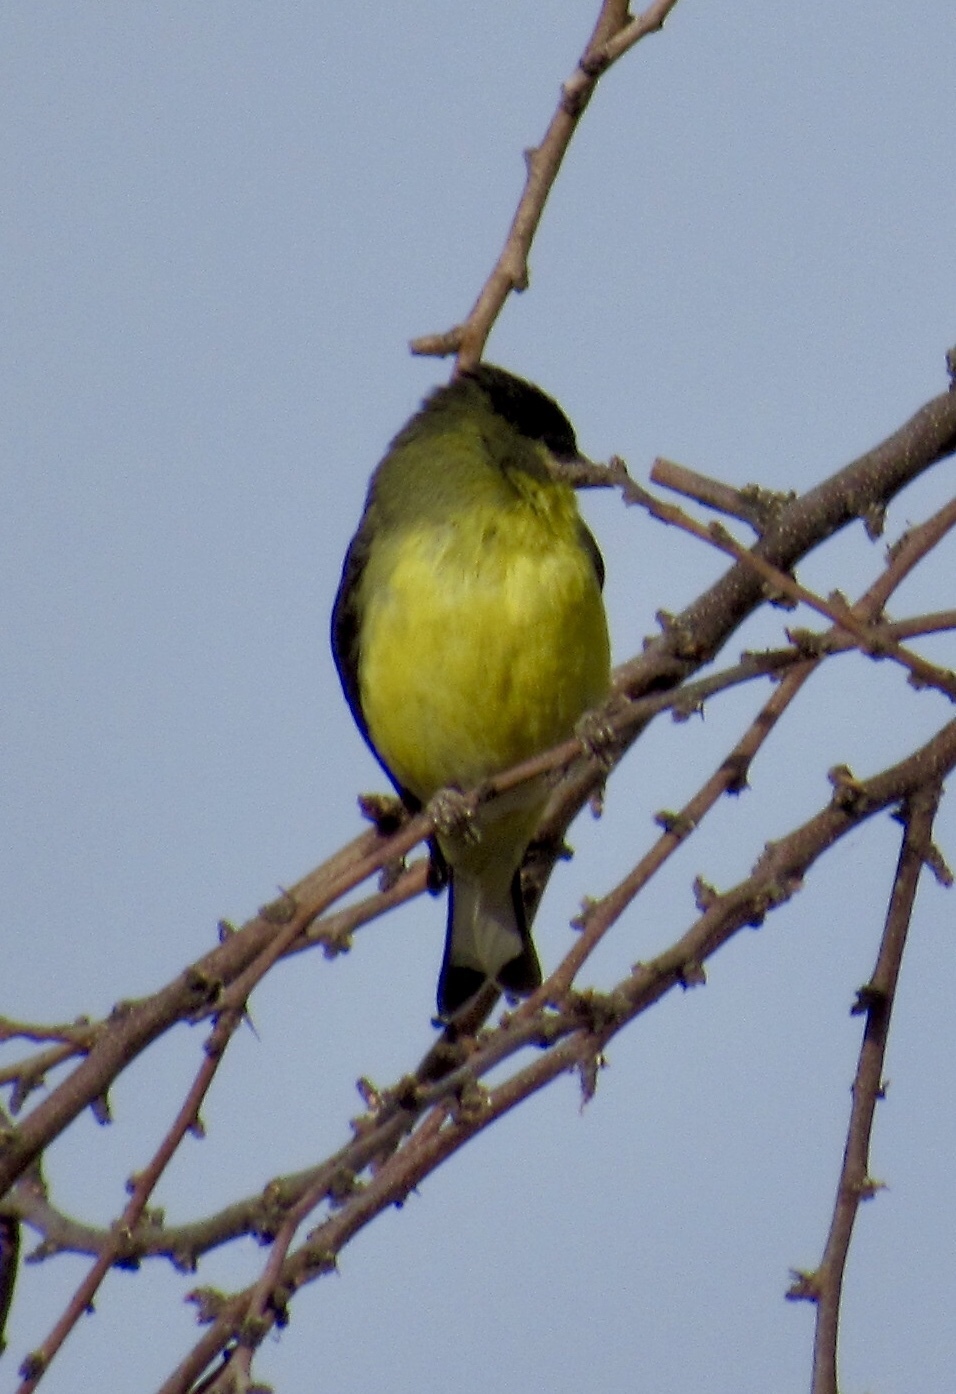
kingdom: Animalia
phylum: Chordata
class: Aves
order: Passeriformes
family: Fringillidae
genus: Spinus
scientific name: Spinus psaltria
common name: Lesser goldfinch
